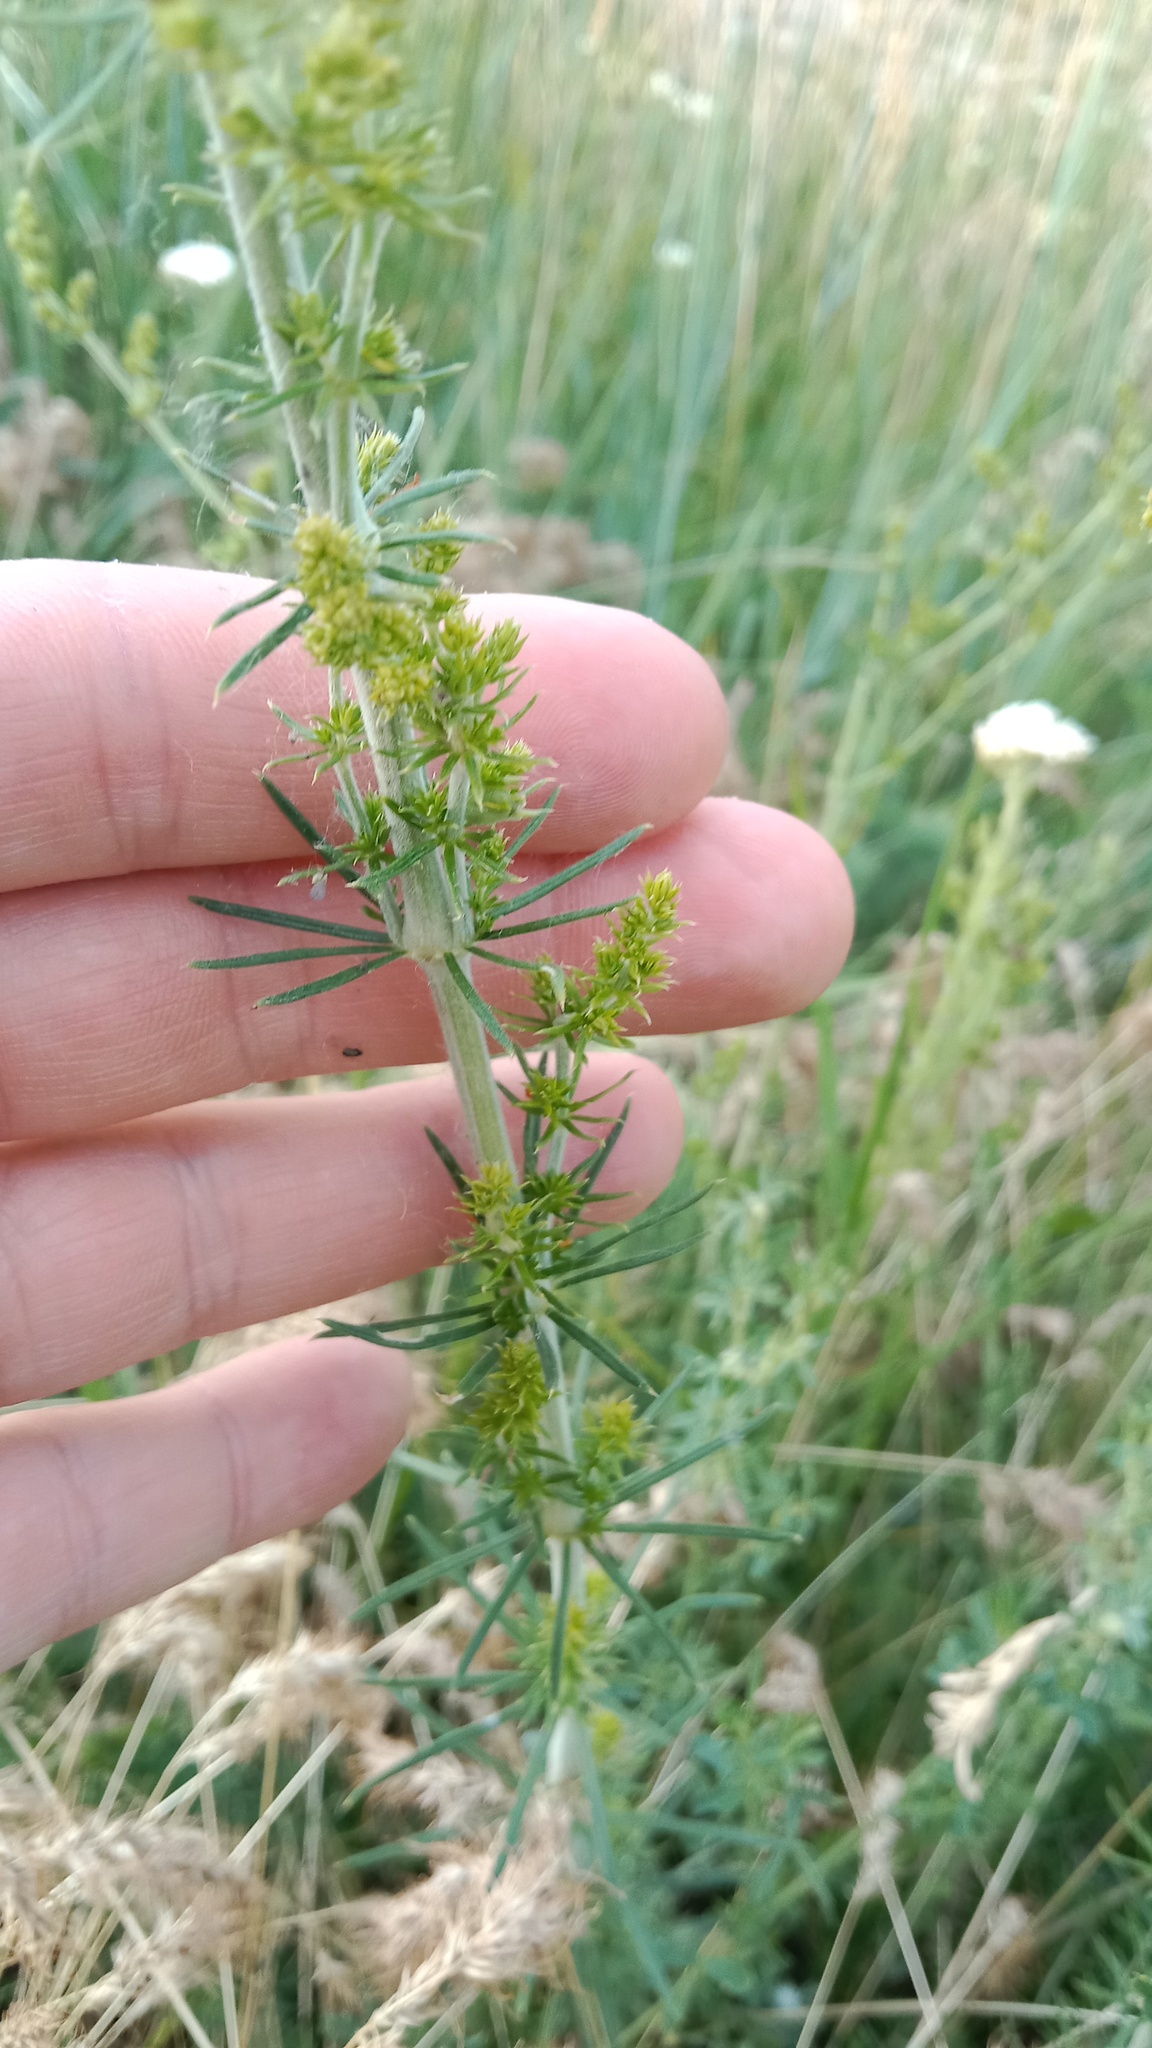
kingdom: Plantae
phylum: Tracheophyta
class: Magnoliopsida
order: Gentianales
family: Rubiaceae
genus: Galium
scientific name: Galium verum
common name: Lady's bedstraw
